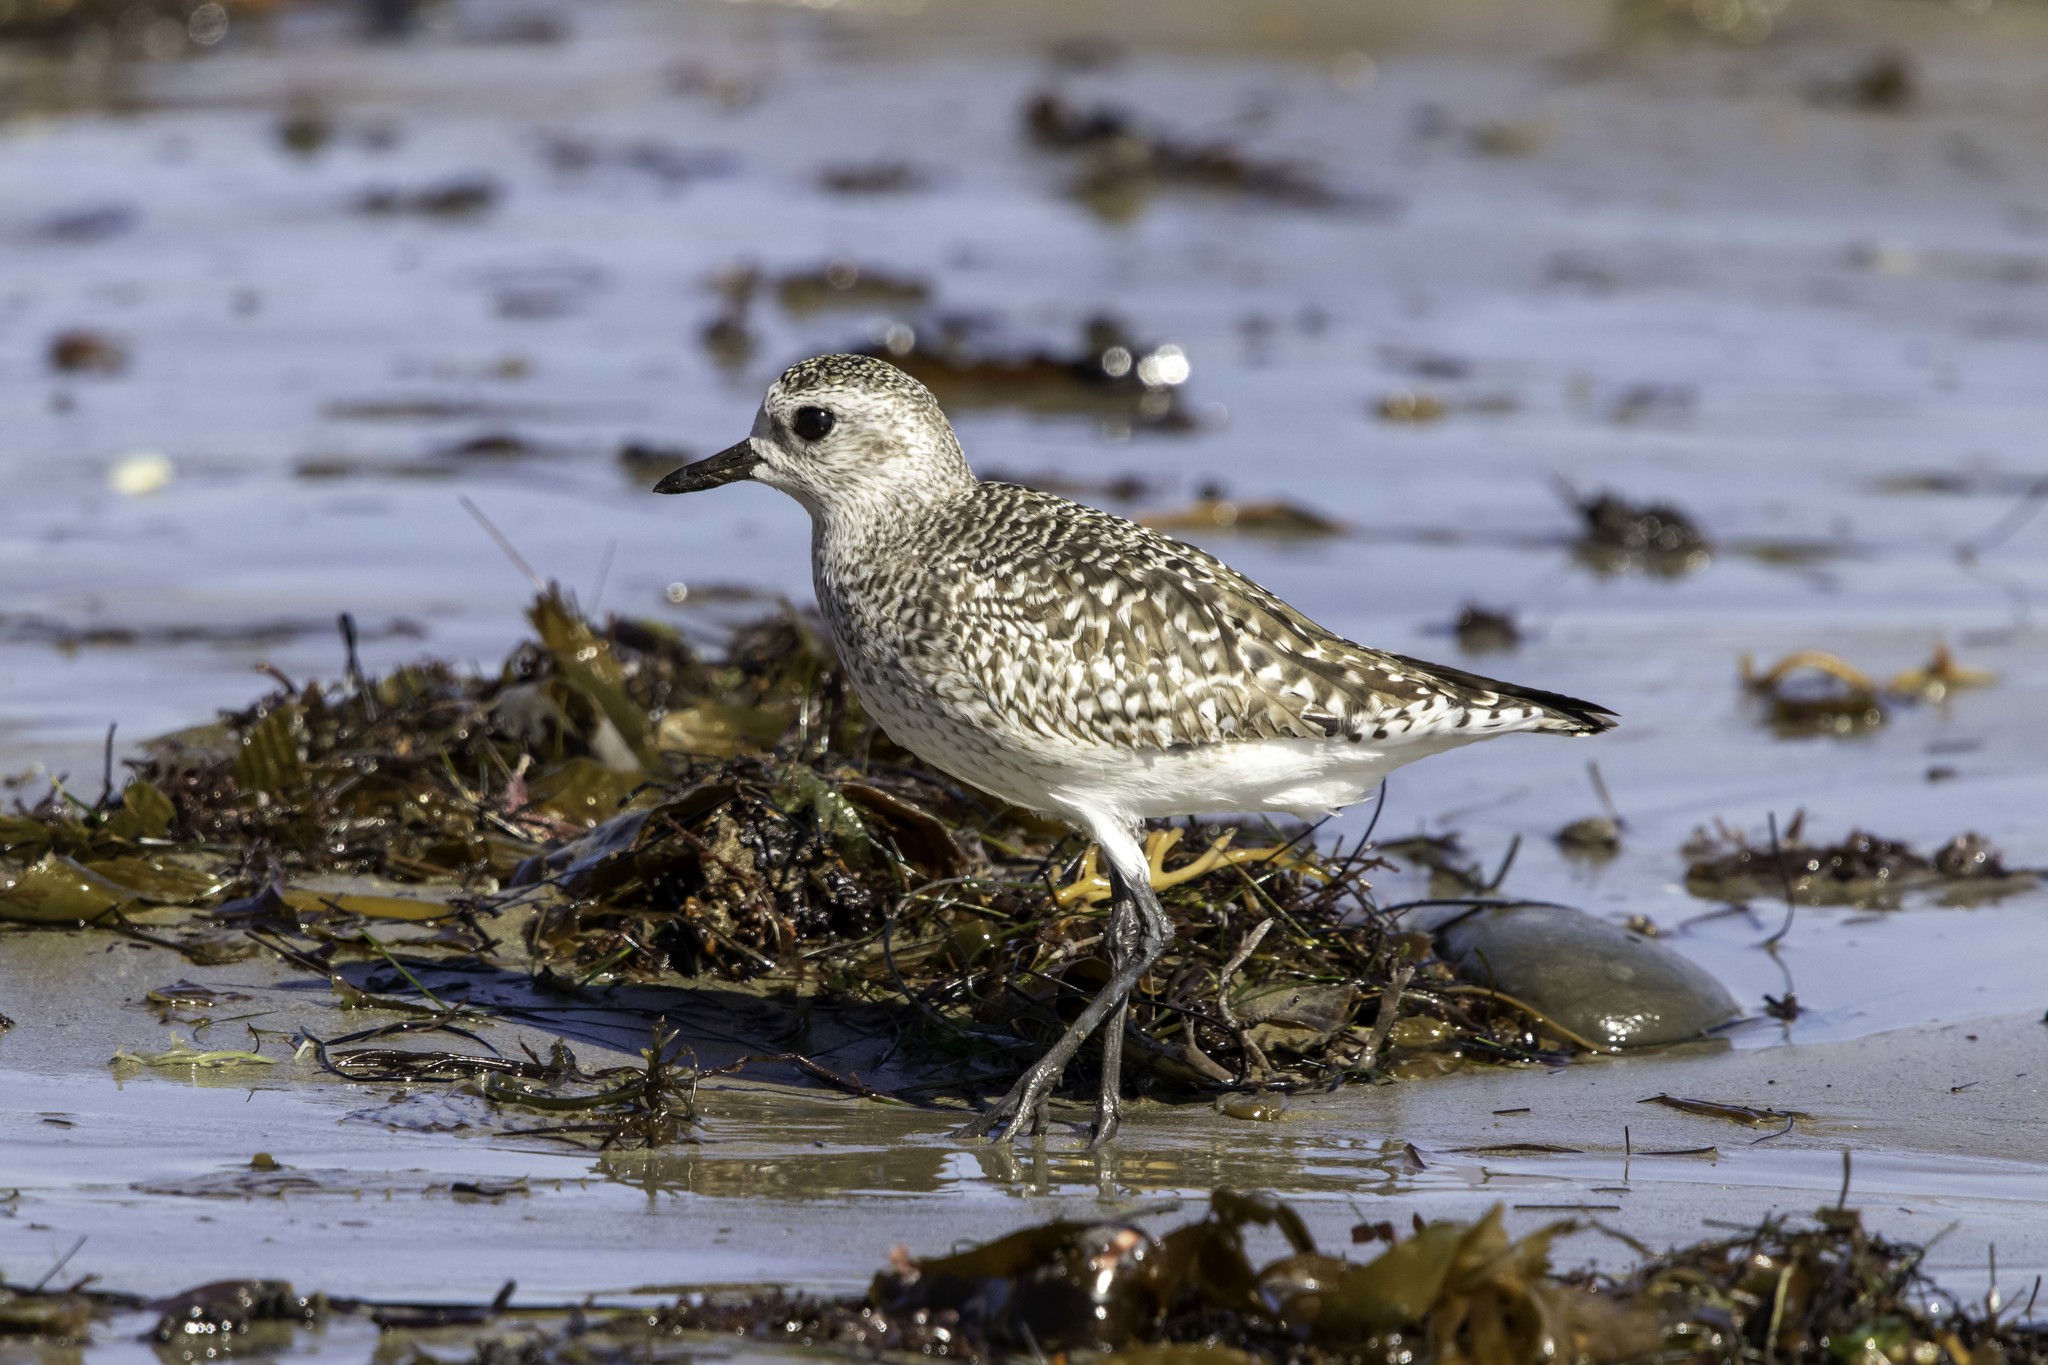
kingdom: Animalia
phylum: Chordata
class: Aves
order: Charadriiformes
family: Charadriidae
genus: Pluvialis
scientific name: Pluvialis squatarola
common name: Grey plover
